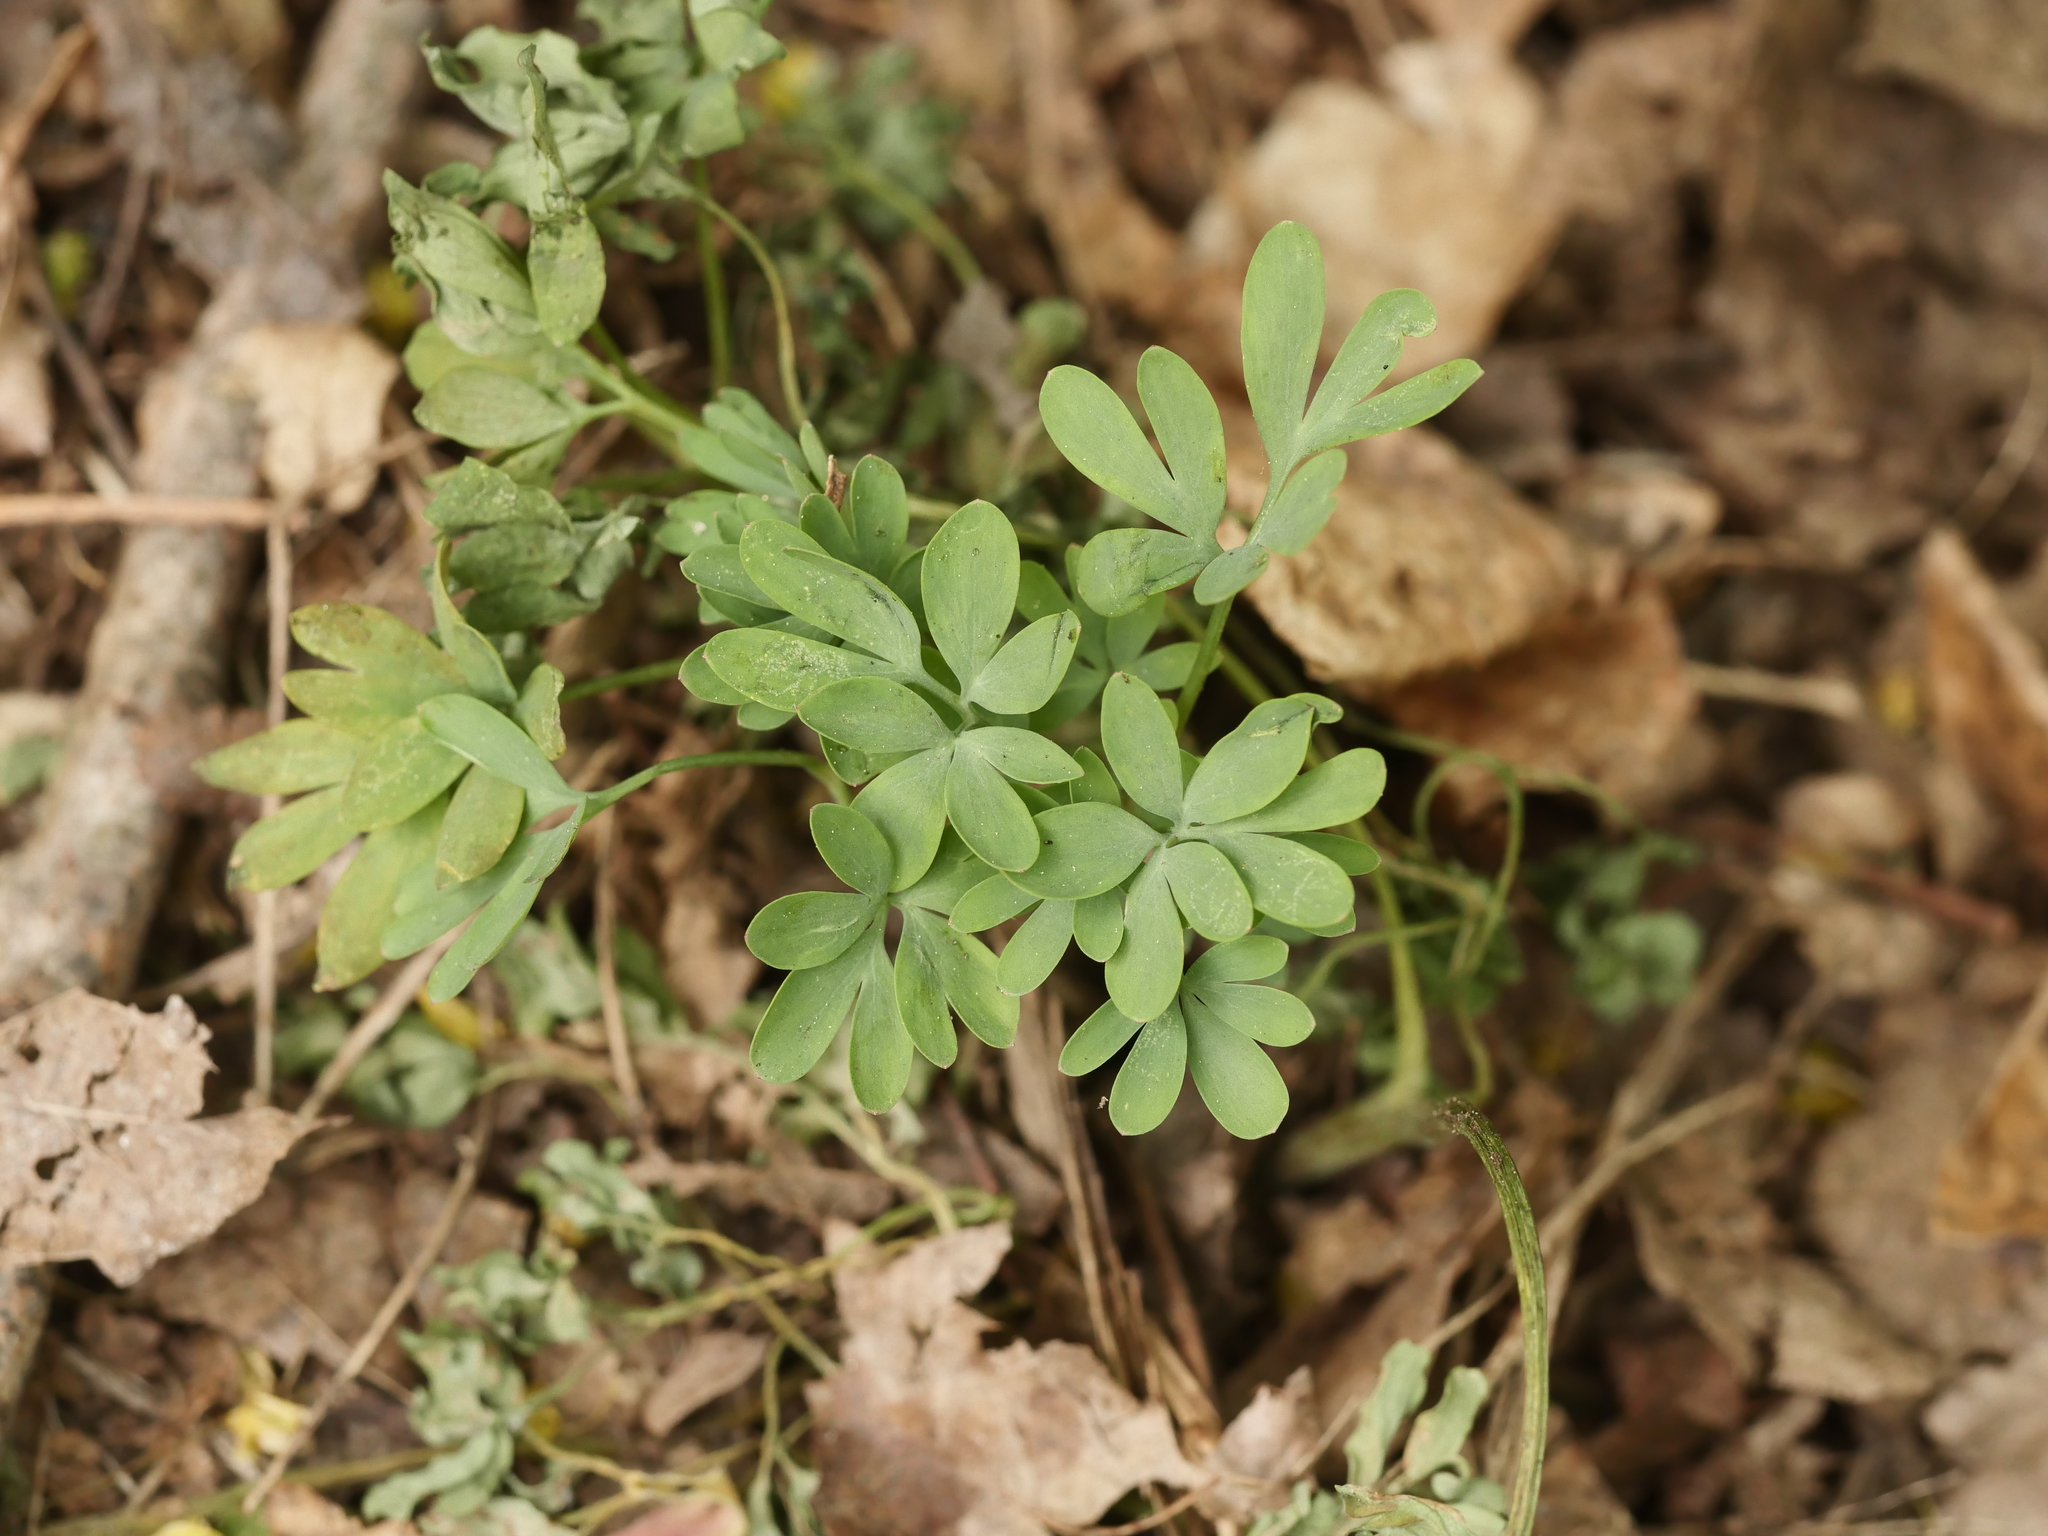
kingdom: Plantae
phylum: Tracheophyta
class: Magnoliopsida
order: Ranunculales
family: Papaveraceae
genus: Corydalis
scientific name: Corydalis solida
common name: Bird-in-a-bush
